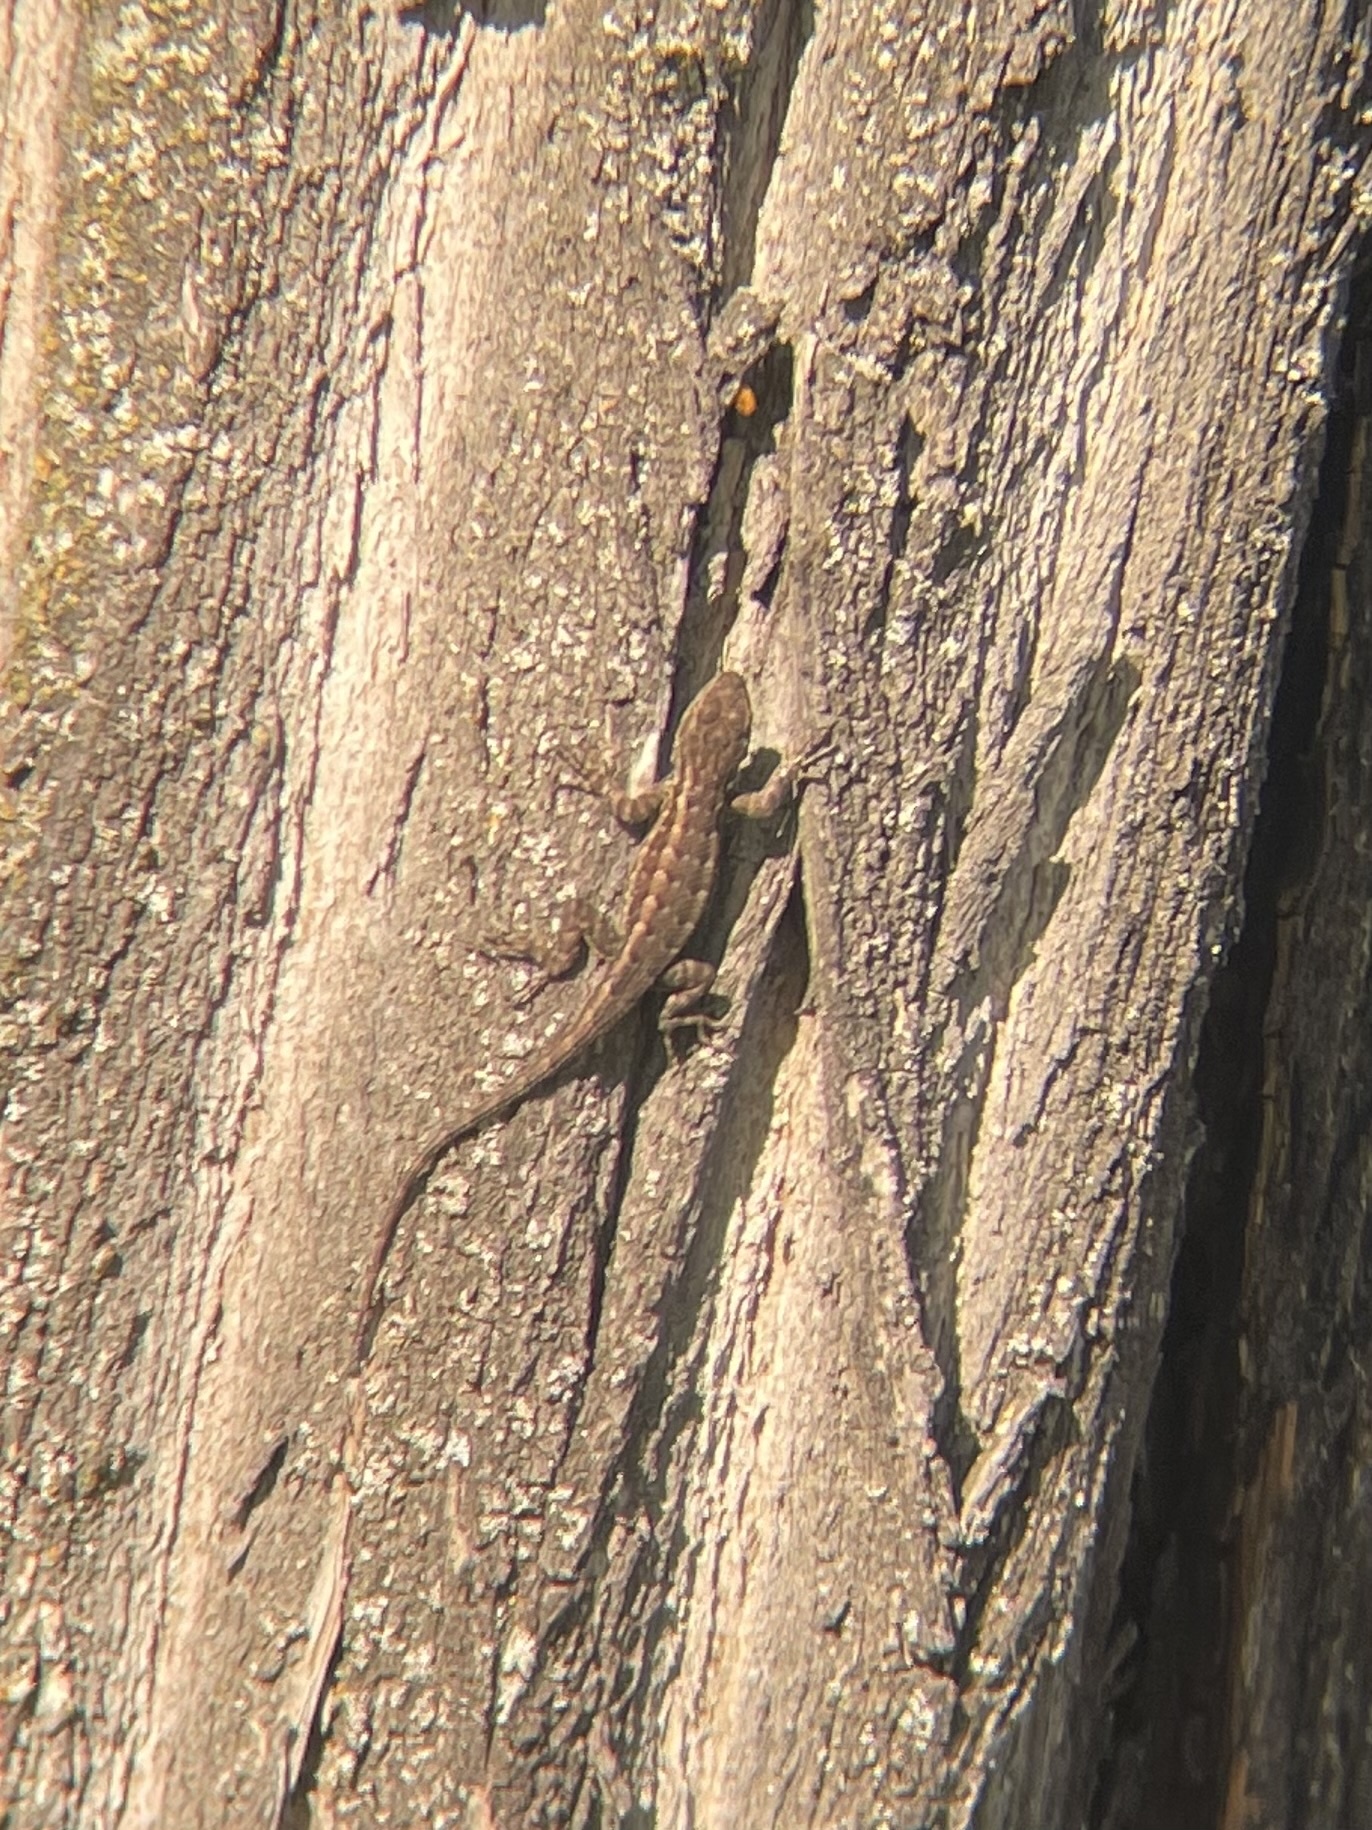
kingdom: Animalia
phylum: Chordata
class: Squamata
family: Phrynosomatidae
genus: Sceloporus
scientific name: Sceloporus occidentalis
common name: Western fence lizard
